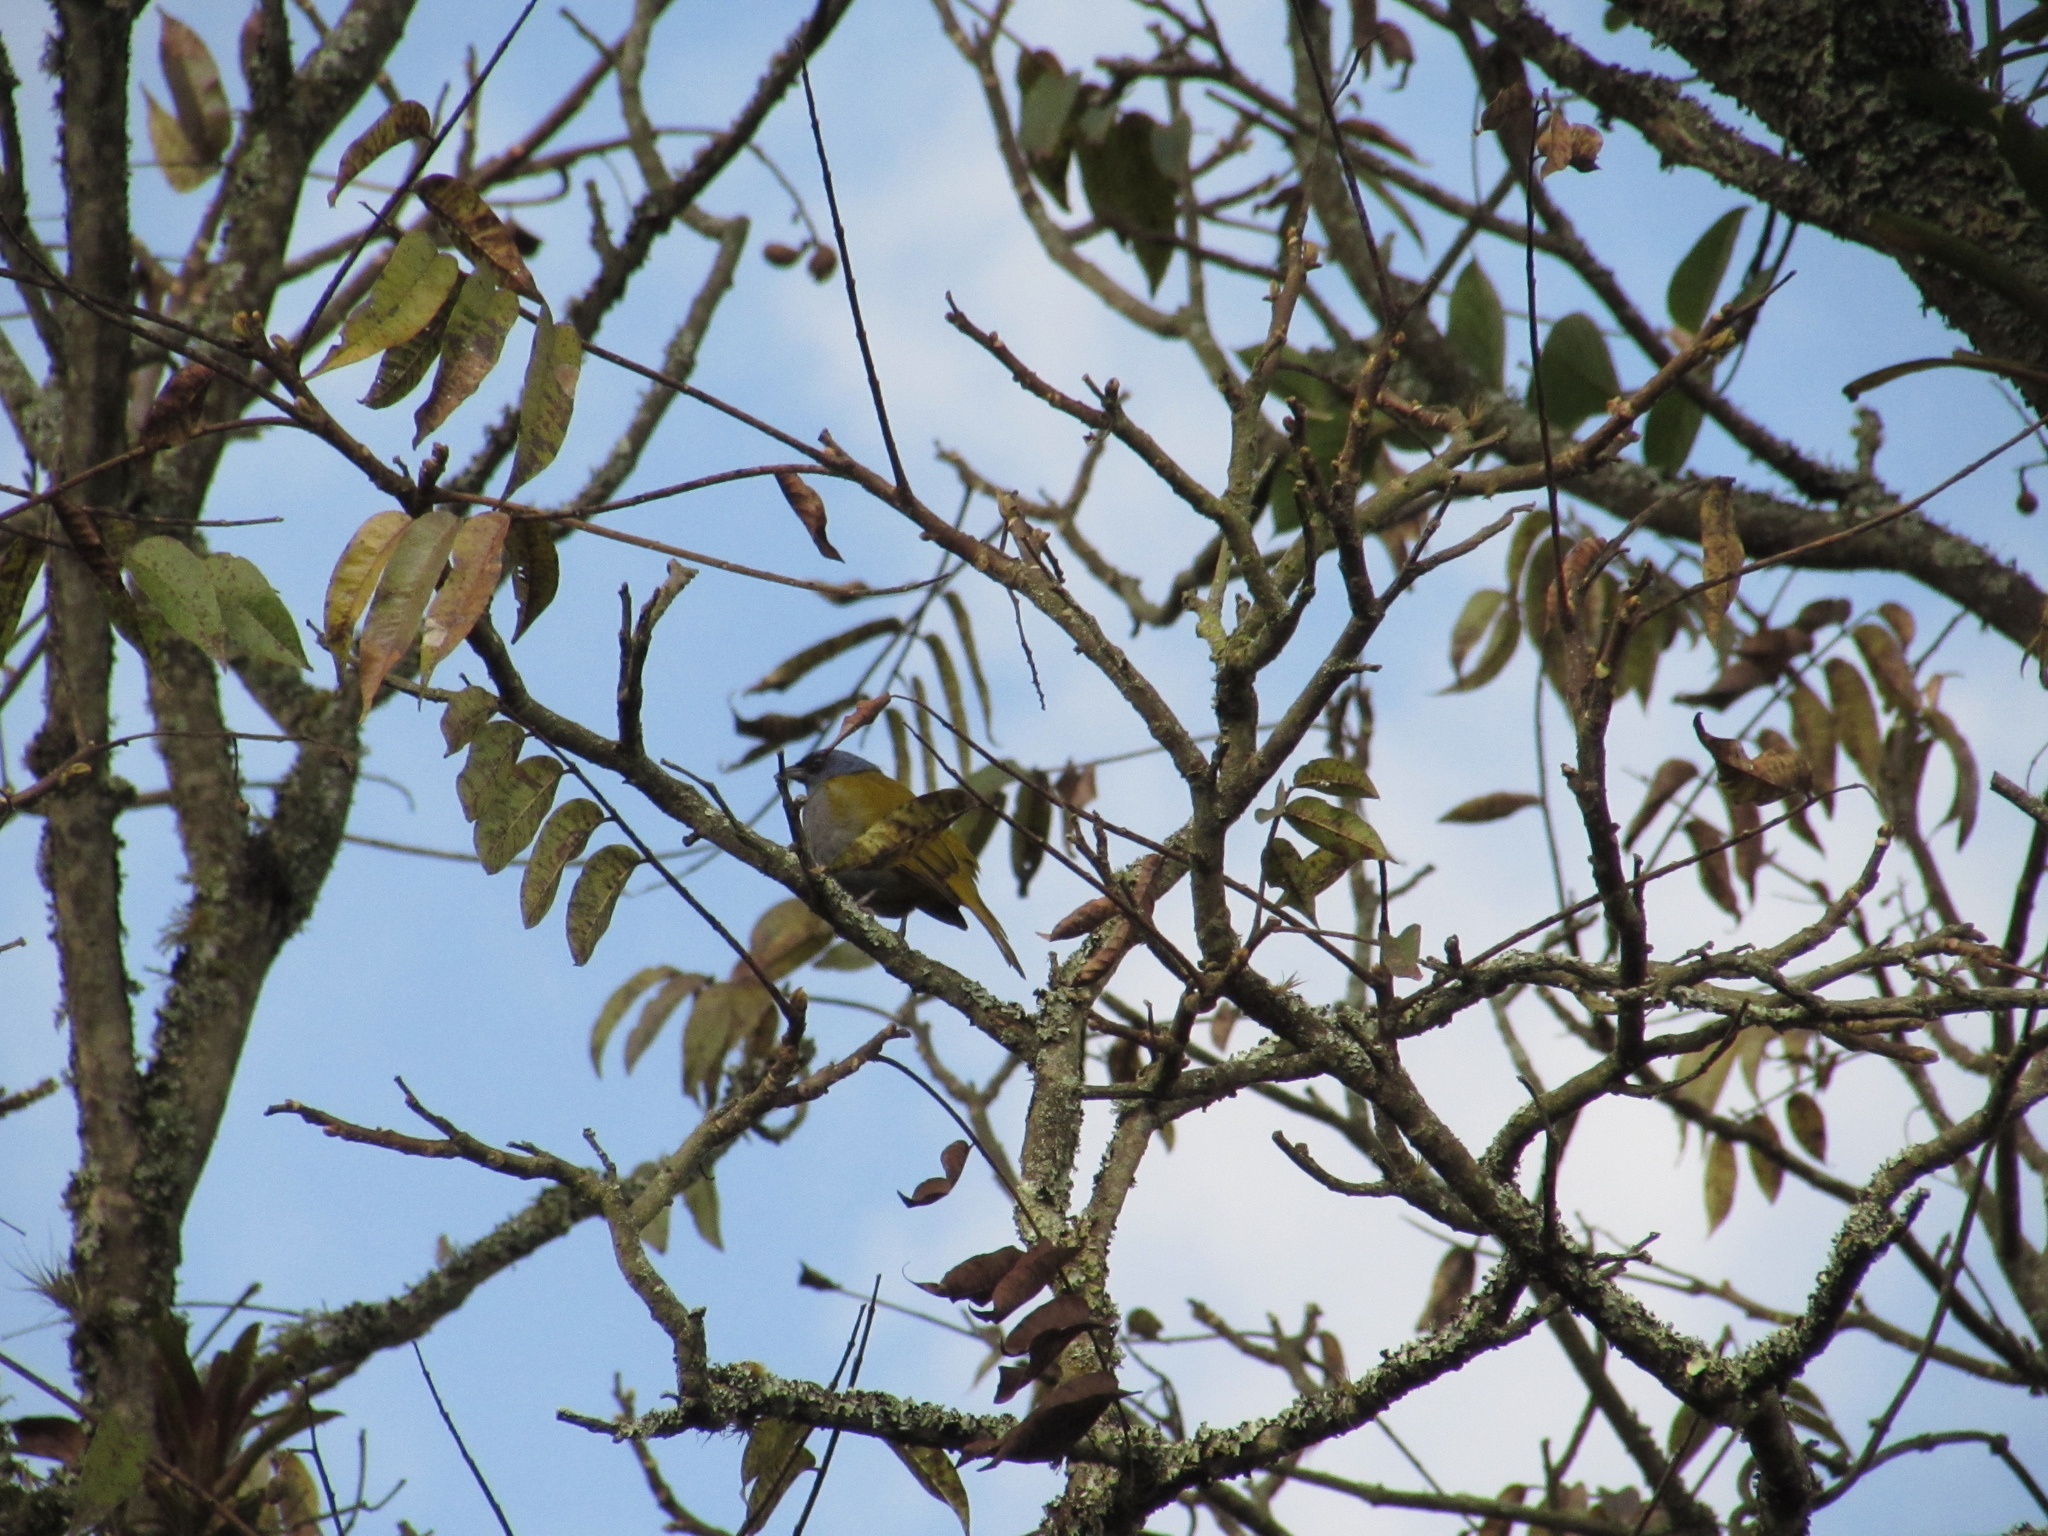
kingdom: Animalia
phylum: Chordata
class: Aves
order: Passeriformes
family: Thraupidae
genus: Sporathraupis
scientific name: Sporathraupis cyanocephala
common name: Blue-capped tanager
